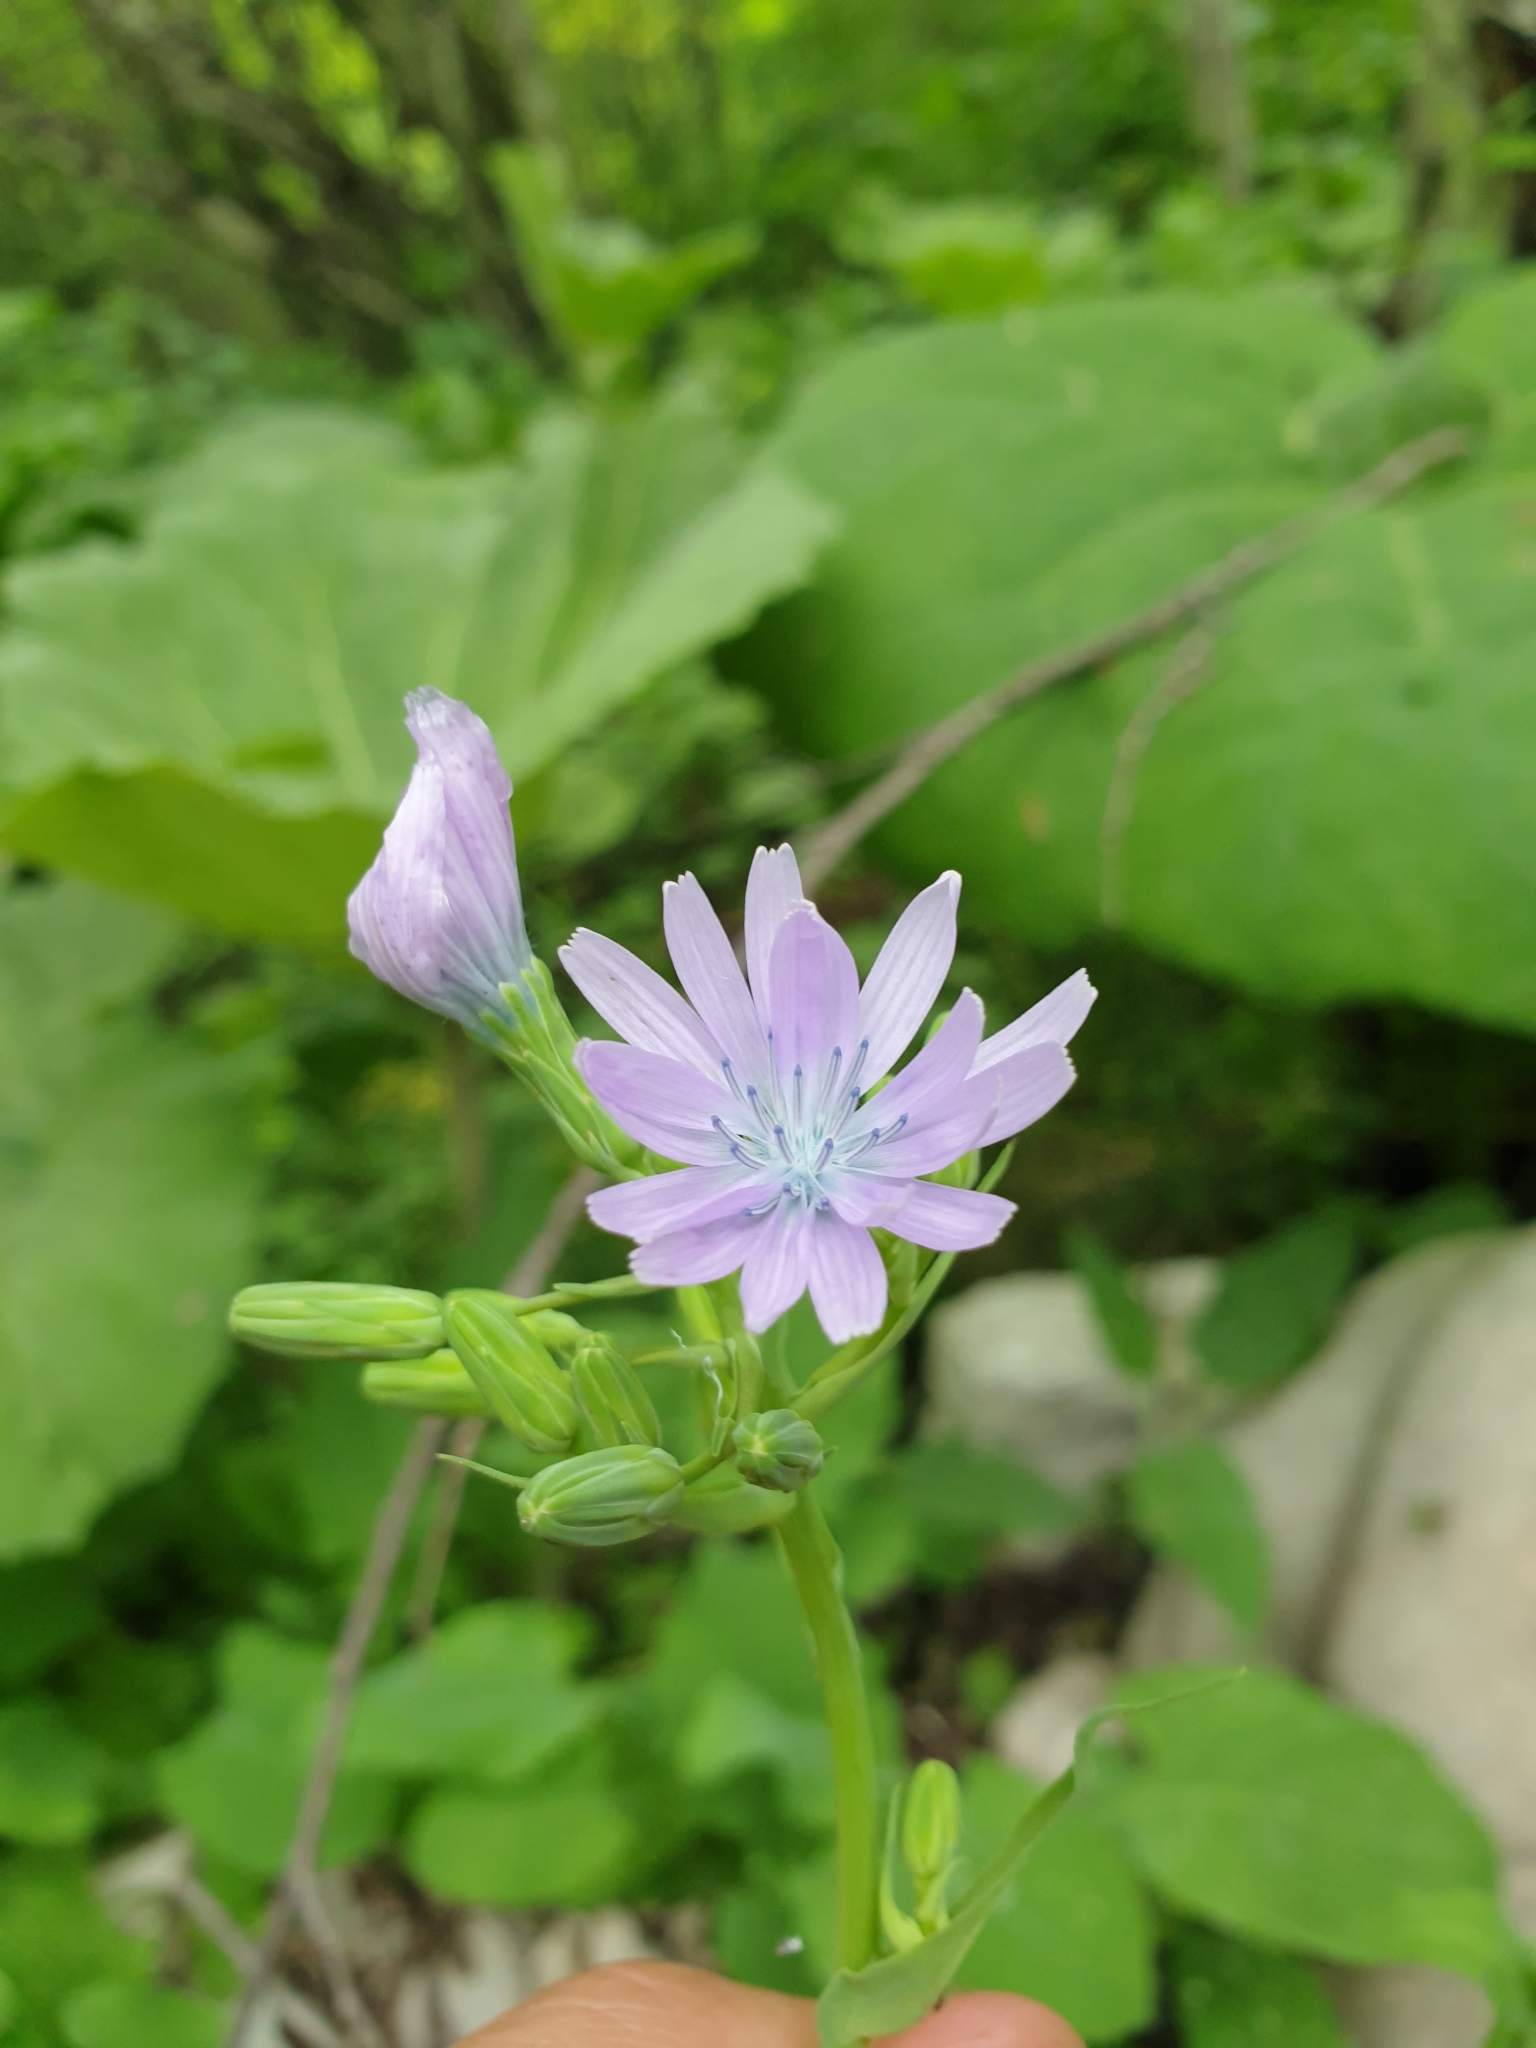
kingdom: Plantae
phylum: Tracheophyta
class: Magnoliopsida
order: Asterales
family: Asteraceae
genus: Lactuca
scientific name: Lactuca racemosa
